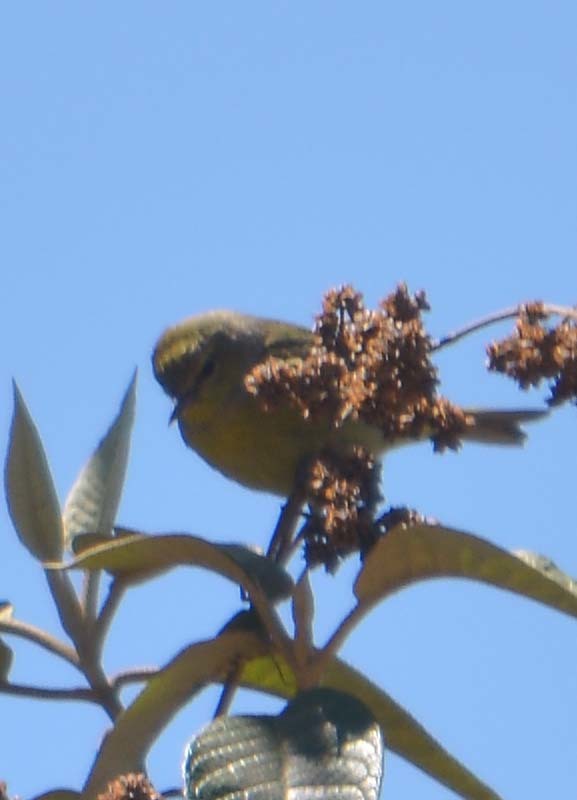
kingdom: Animalia
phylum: Chordata
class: Aves
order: Passeriformes
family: Parulidae
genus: Leiothlypis
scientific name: Leiothlypis celata
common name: Orange-crowned warbler
